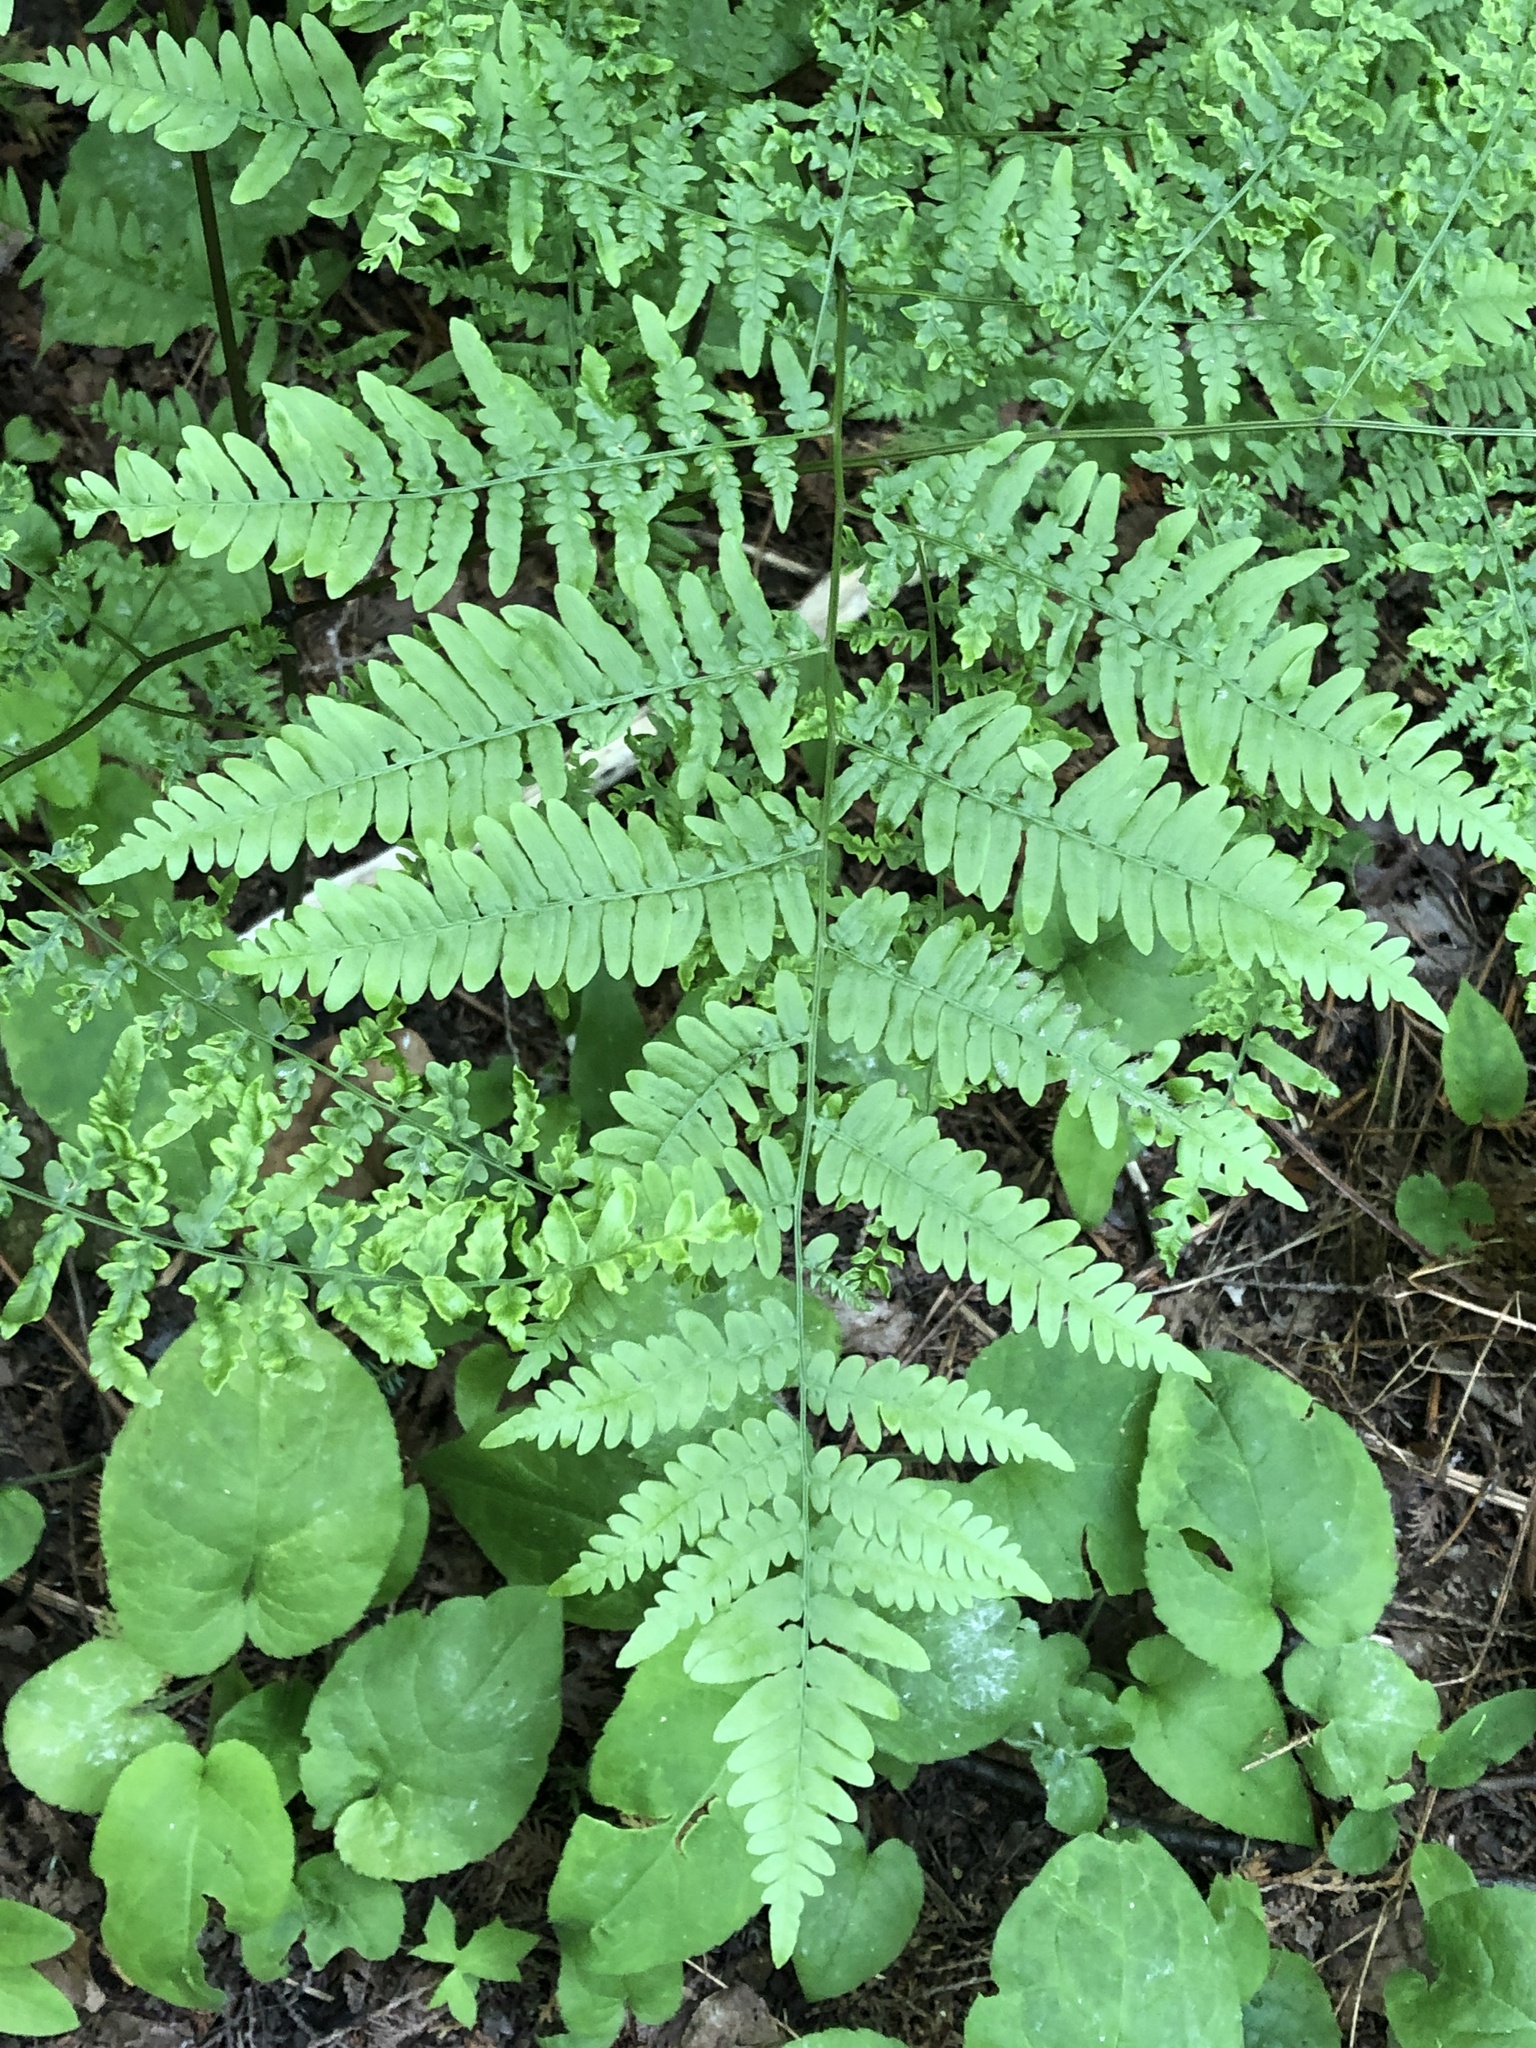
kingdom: Plantae
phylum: Tracheophyta
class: Polypodiopsida
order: Polypodiales
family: Dennstaedtiaceae
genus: Pteridium
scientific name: Pteridium aquilinum
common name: Bracken
